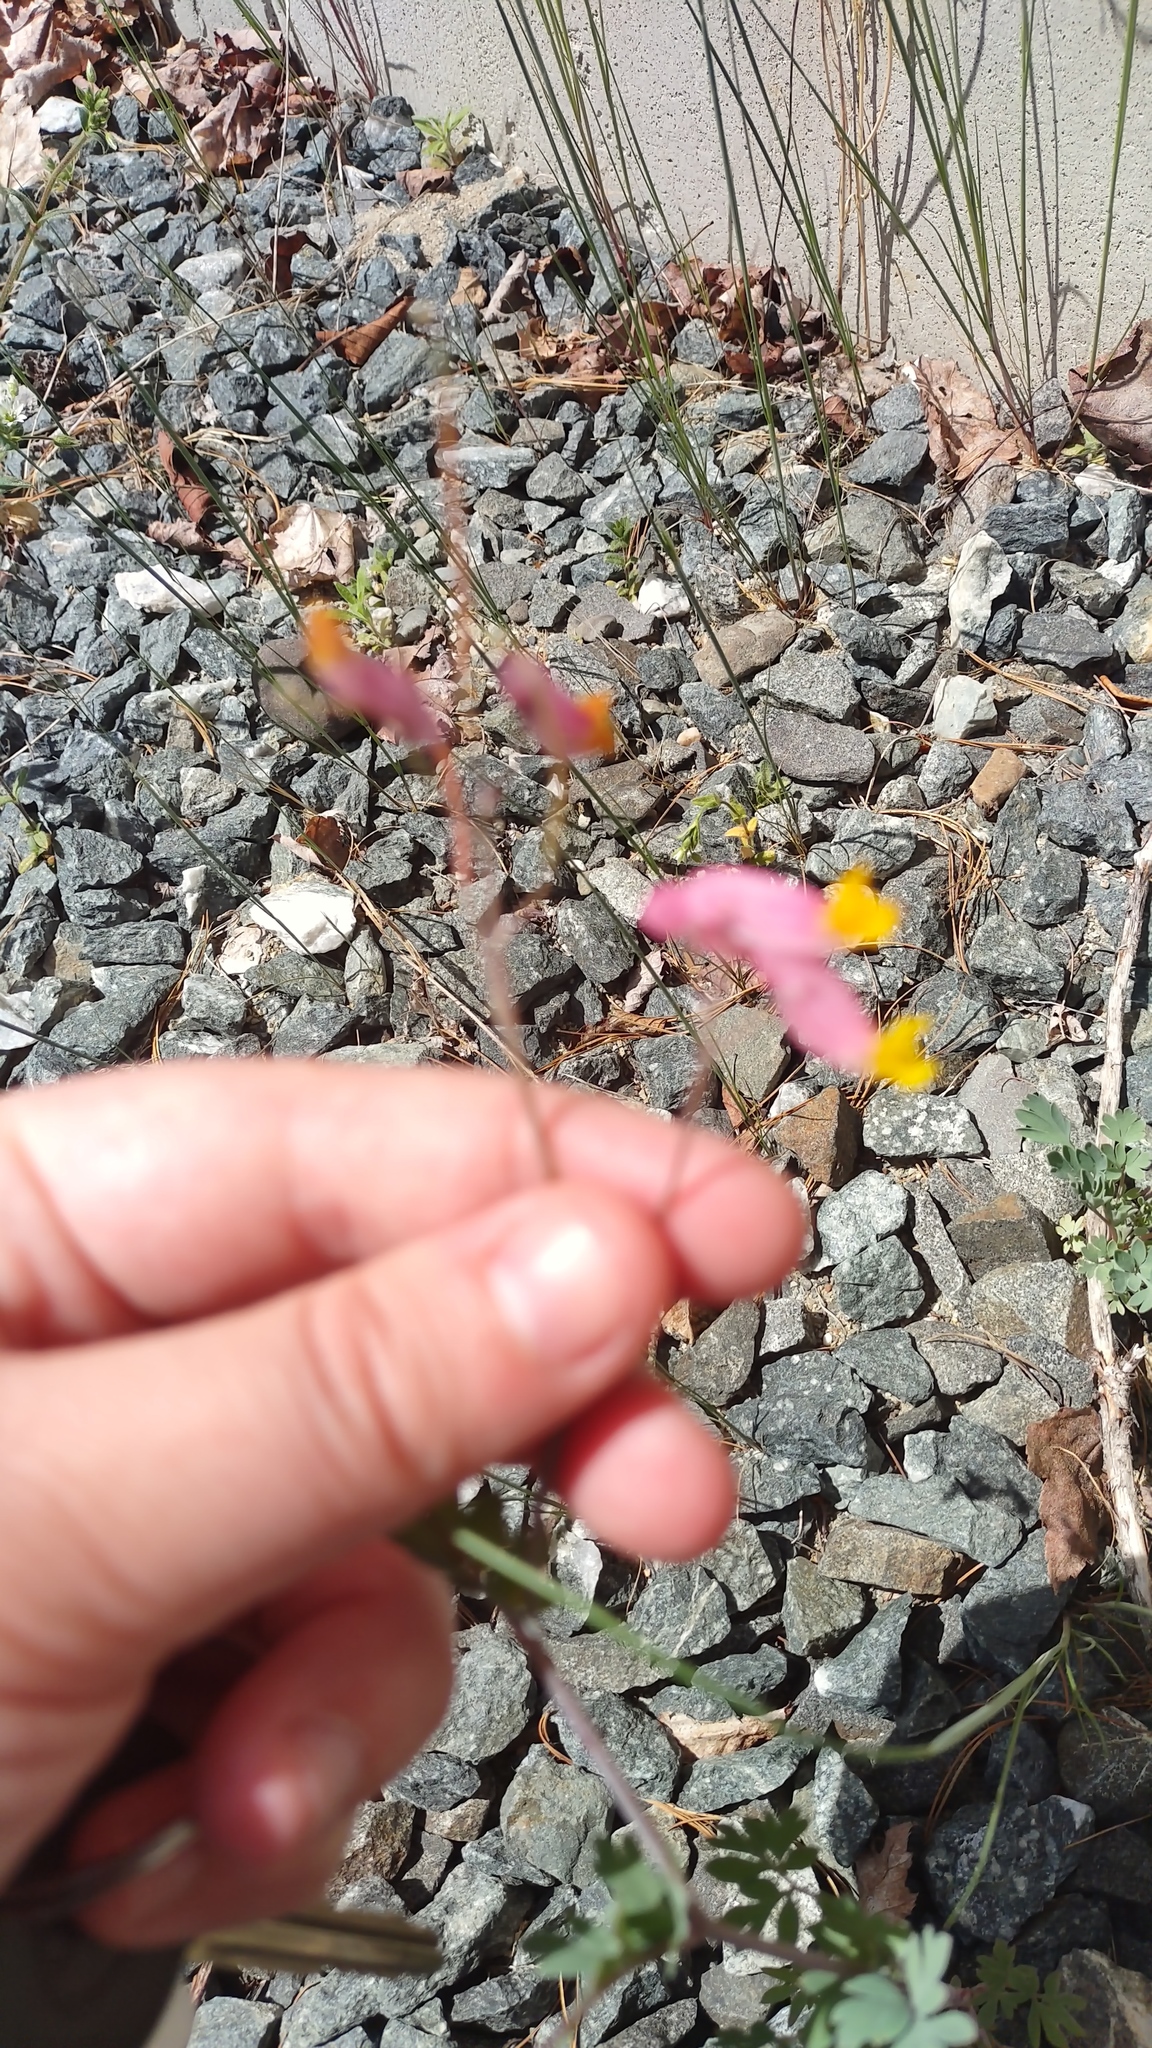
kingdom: Plantae
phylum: Tracheophyta
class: Magnoliopsida
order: Ranunculales
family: Papaveraceae
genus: Capnoides
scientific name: Capnoides sempervirens
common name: Rock harlequin
